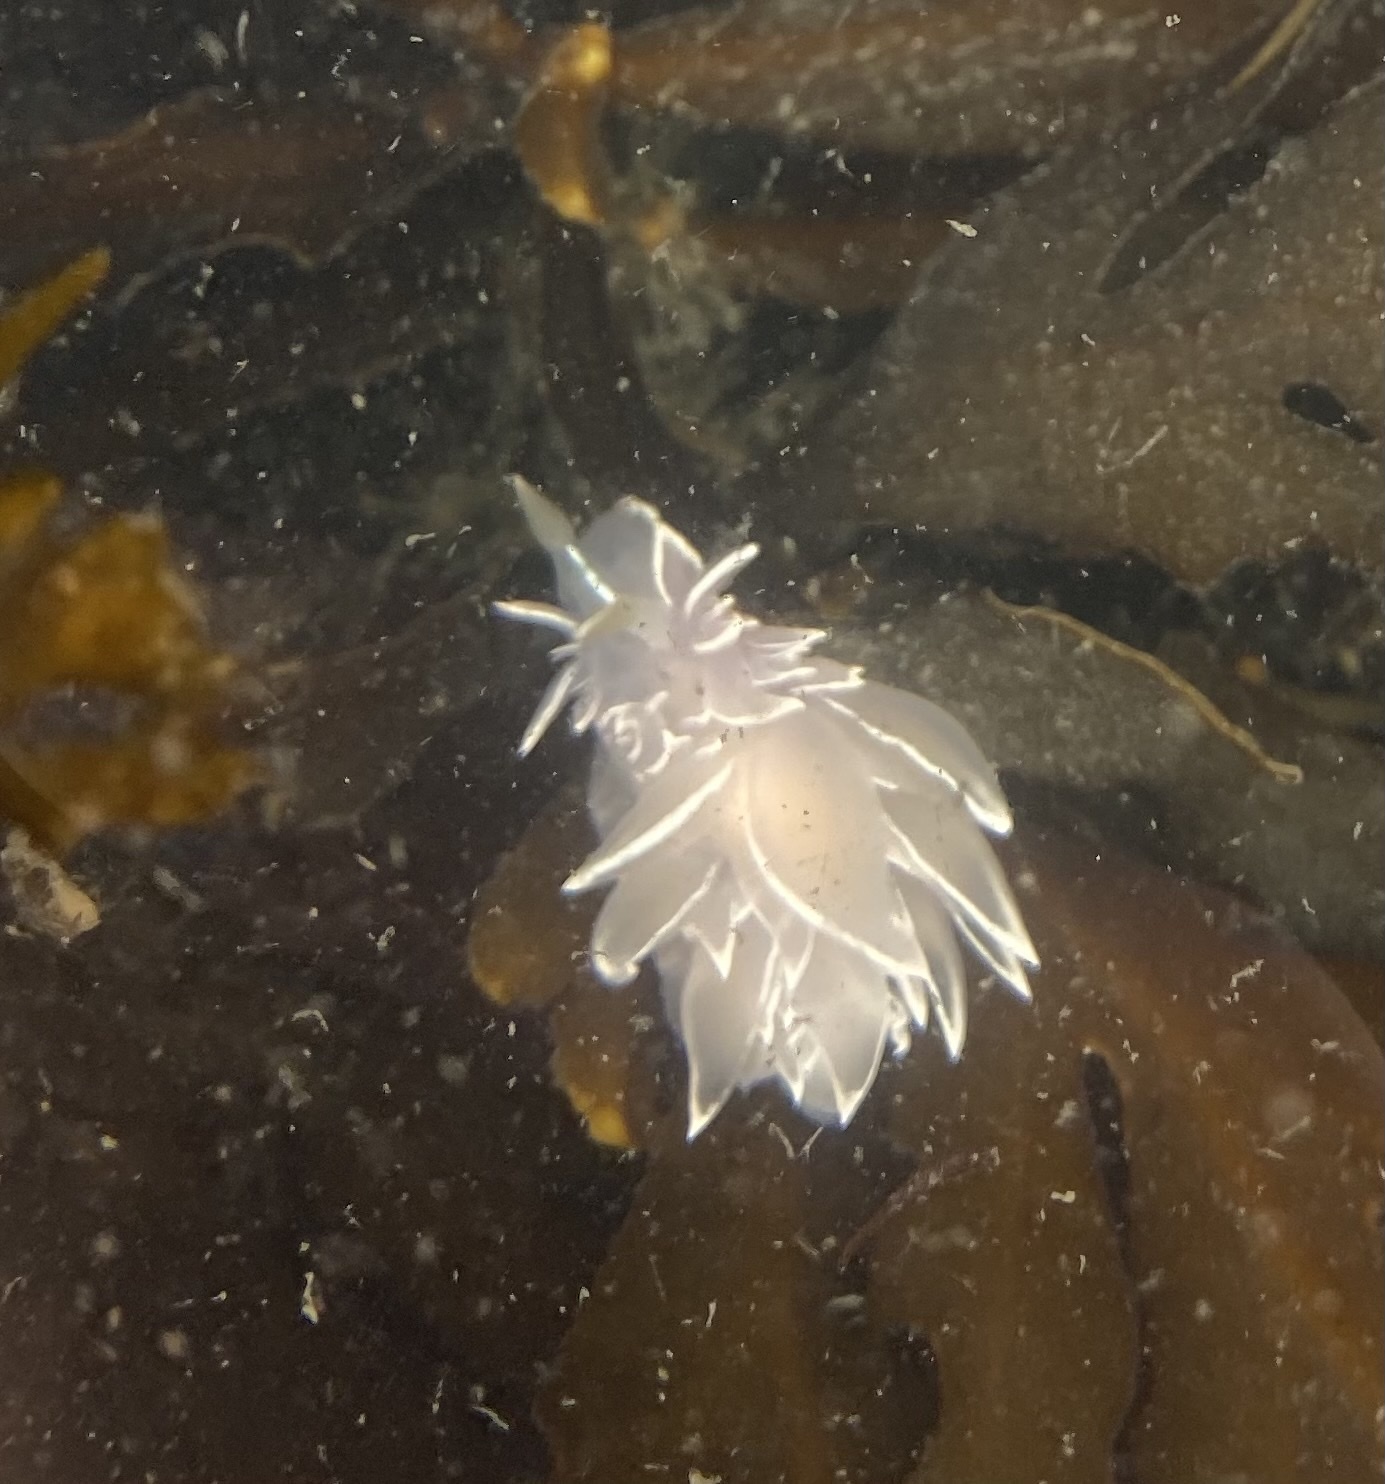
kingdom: Animalia
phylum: Mollusca
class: Gastropoda
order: Nudibranchia
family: Dironidae
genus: Dirona
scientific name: Dirona albolineata
